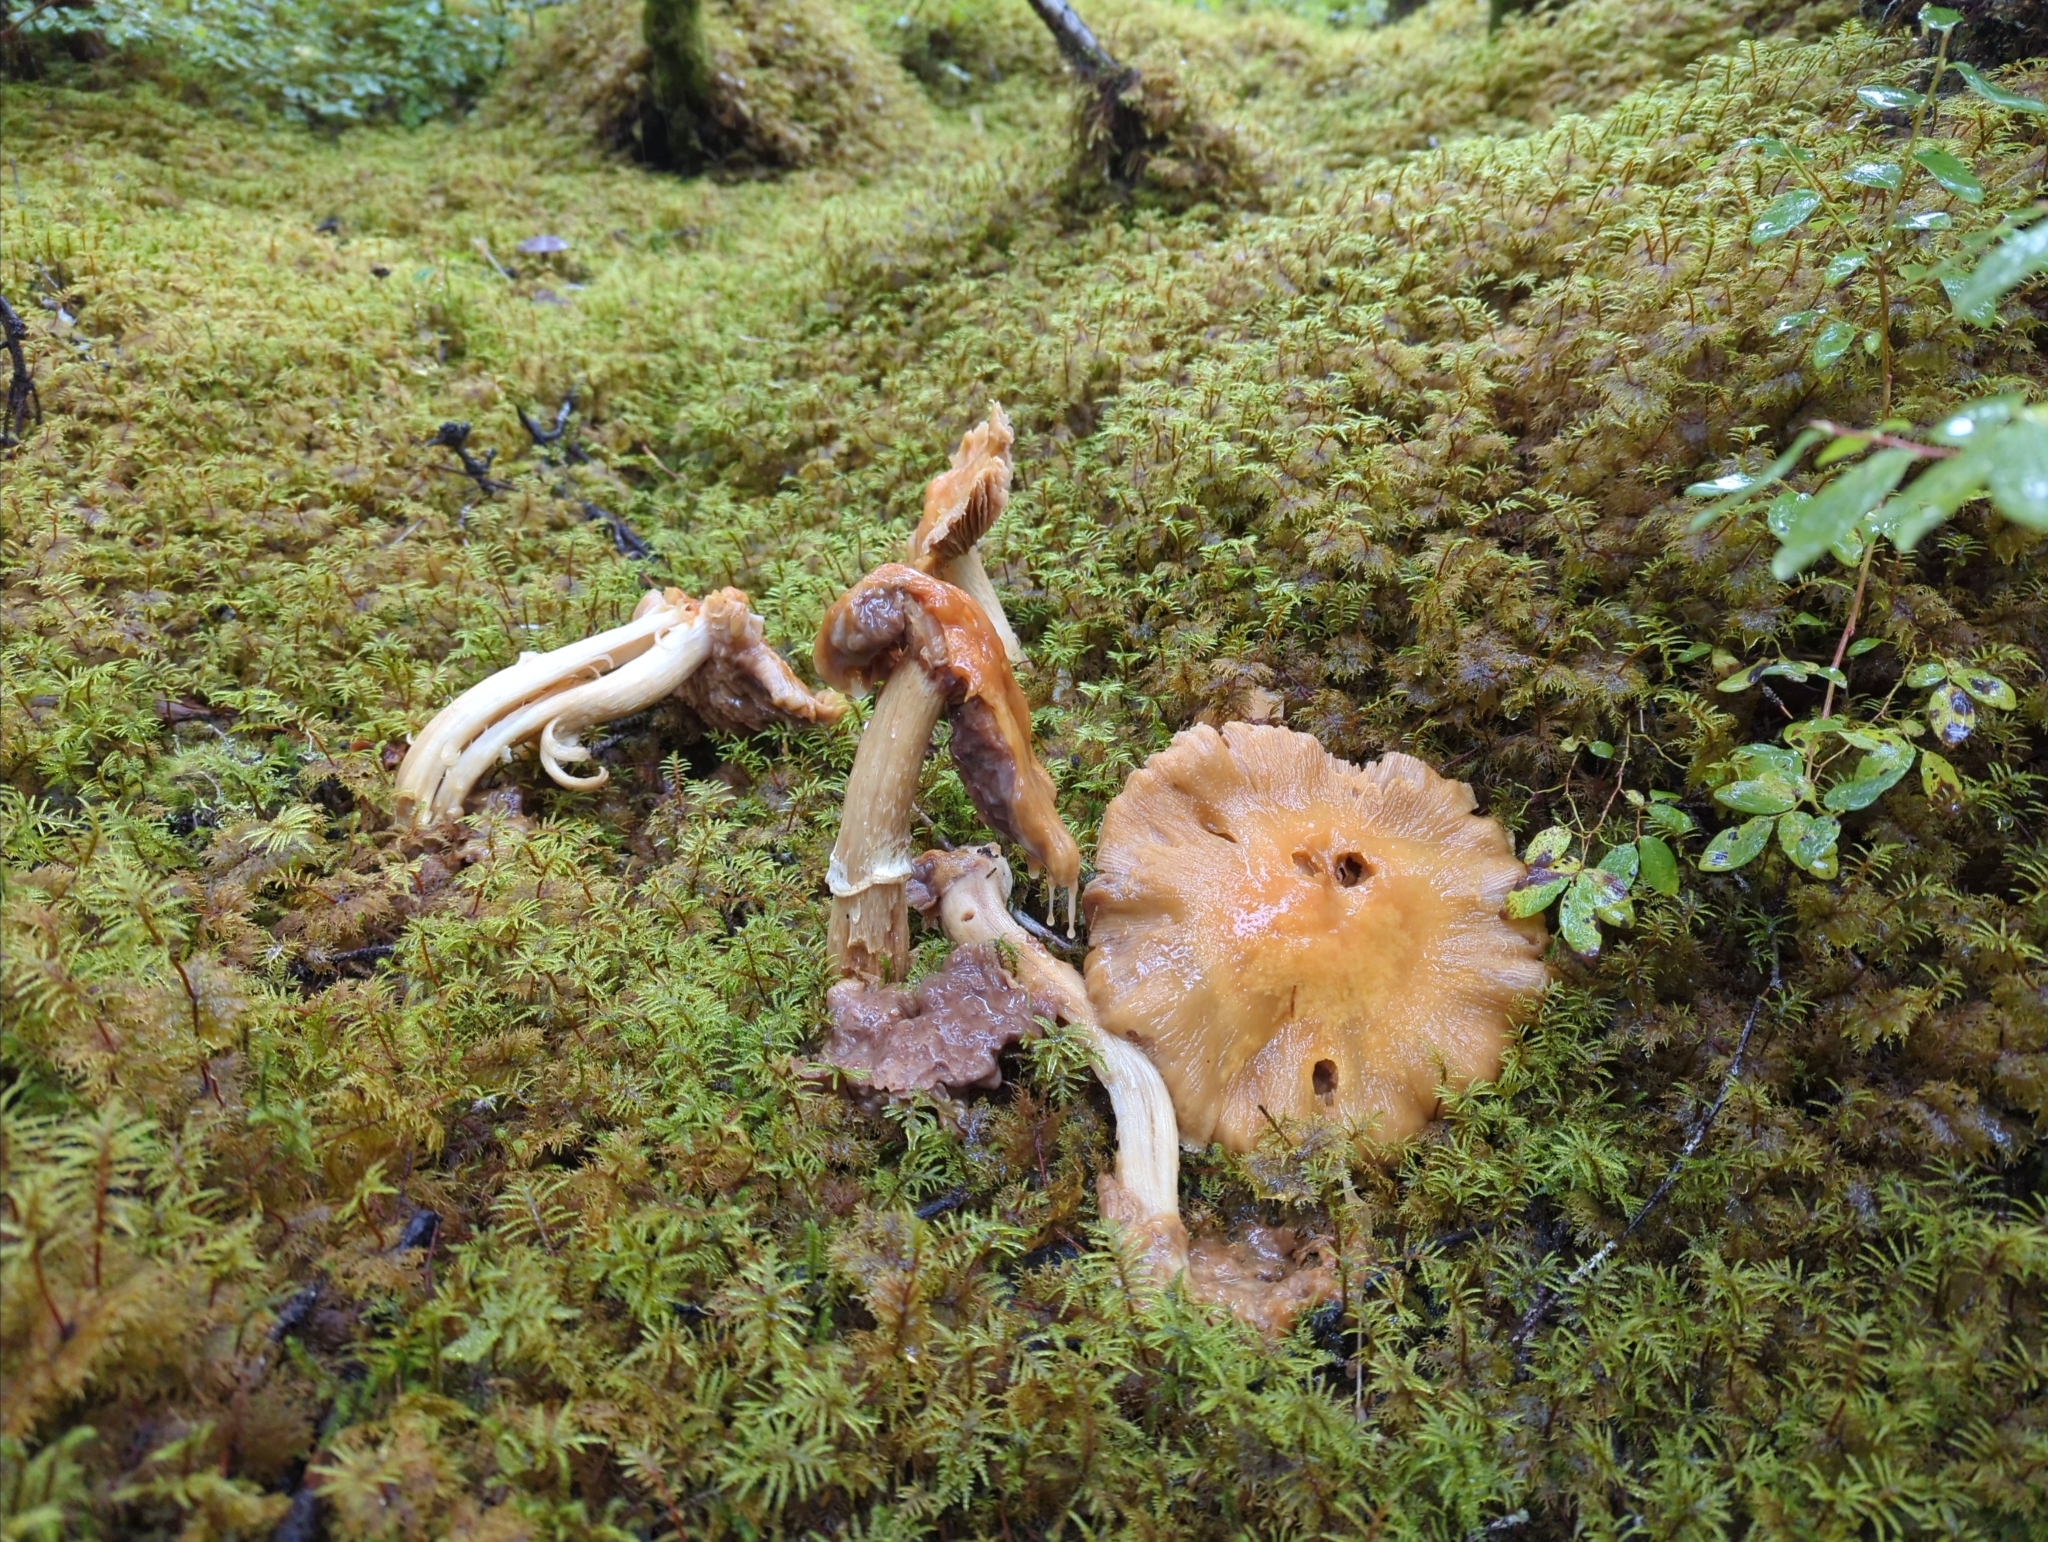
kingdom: Fungi
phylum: Basidiomycota
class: Agaricomycetes
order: Agaricales
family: Cortinariaceae
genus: Cortinarius
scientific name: Cortinarius caperatus
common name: The gypsy
